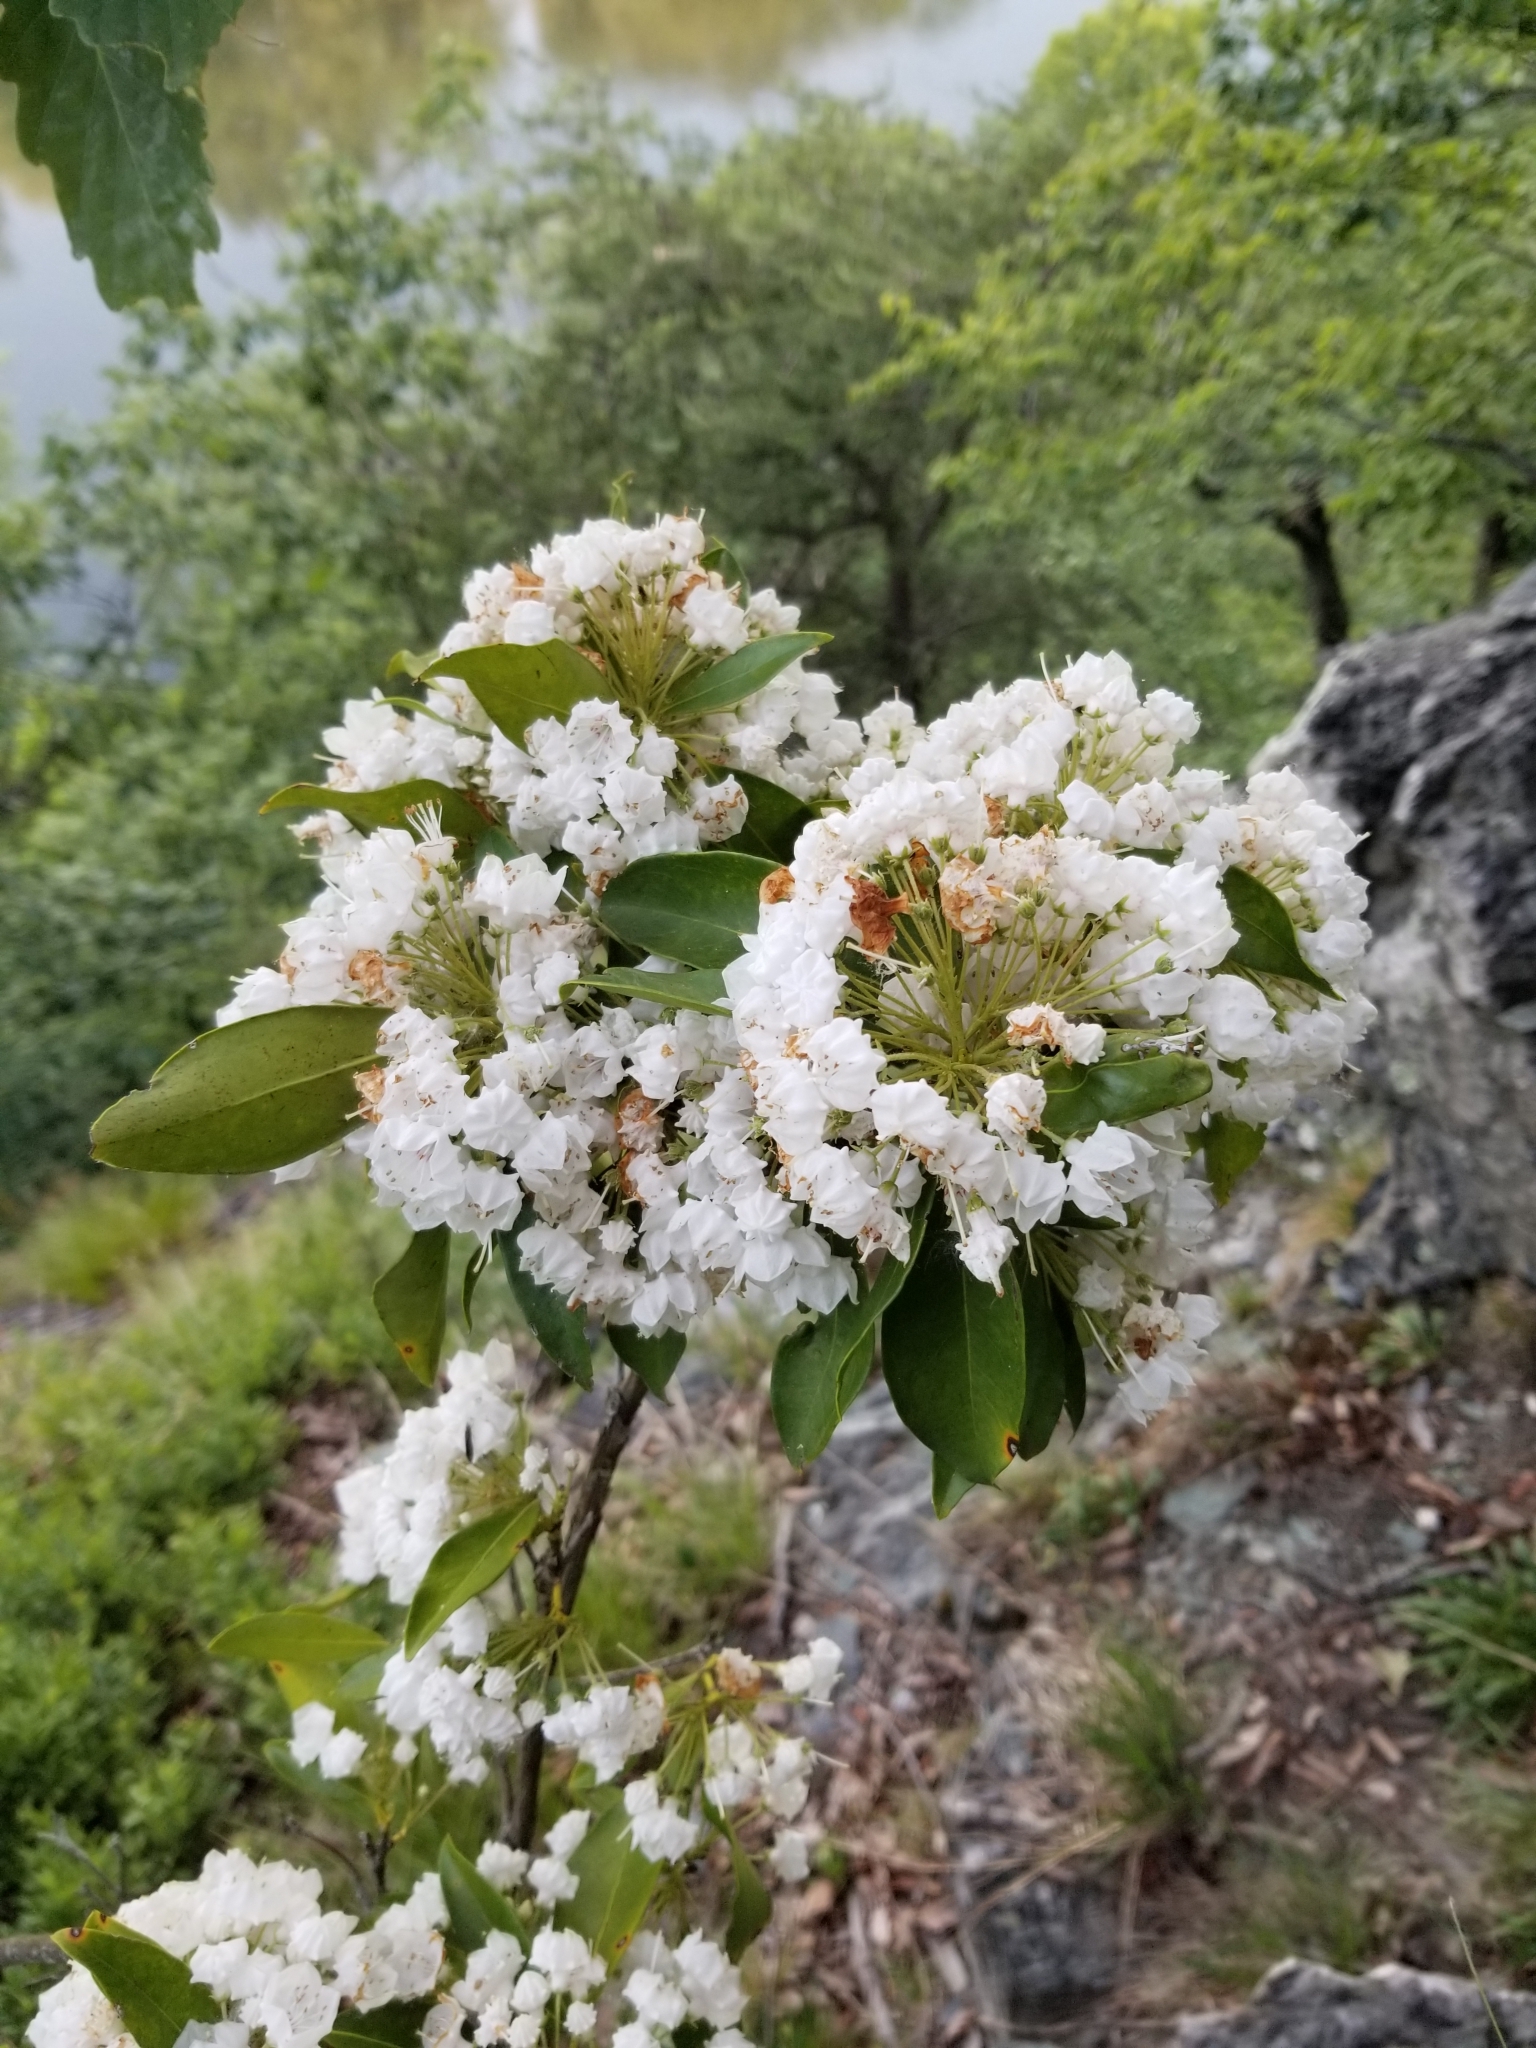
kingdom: Plantae
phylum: Tracheophyta
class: Magnoliopsida
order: Ericales
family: Ericaceae
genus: Kalmia
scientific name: Kalmia latifolia
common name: Mountain-laurel
